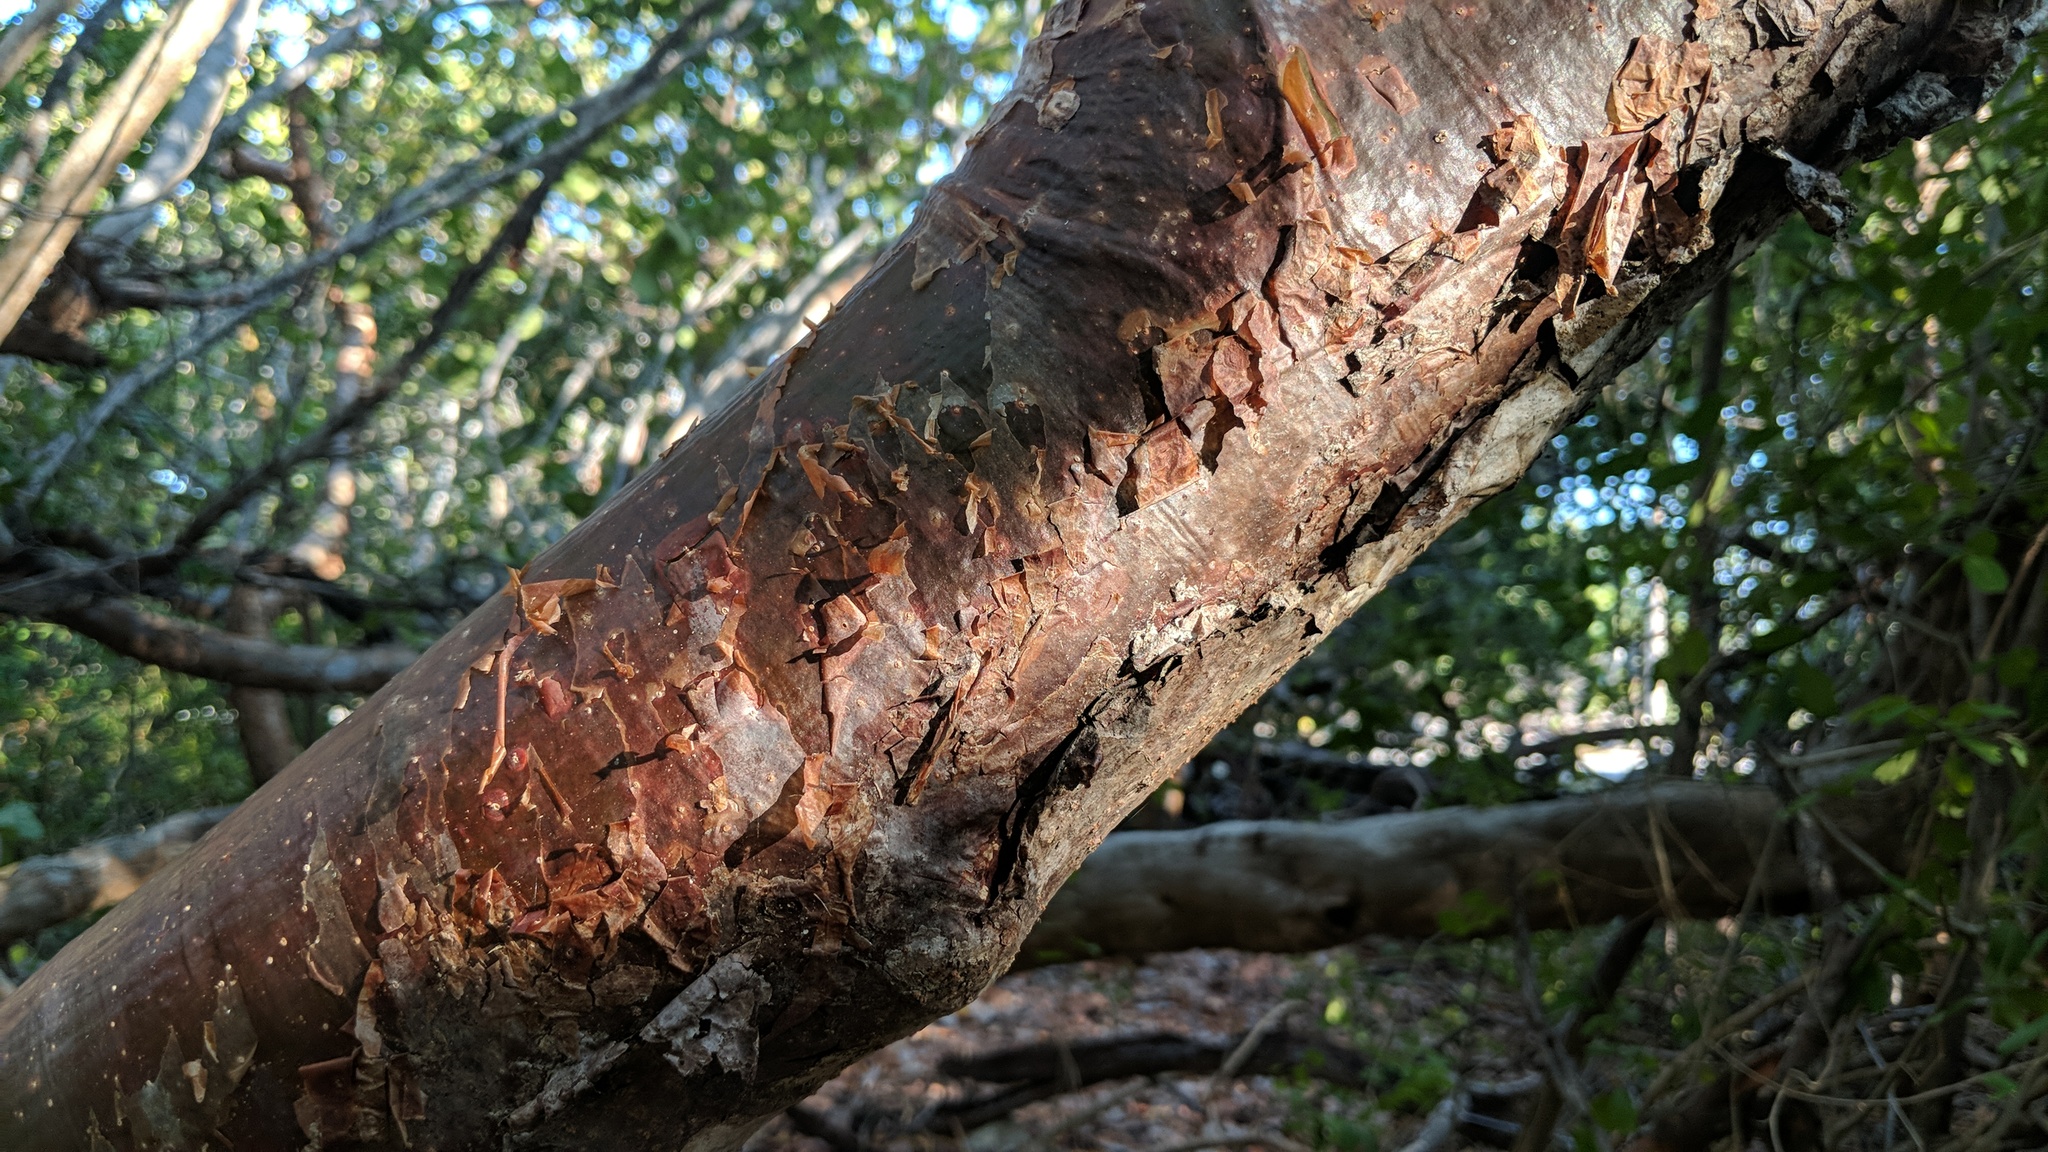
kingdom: Plantae
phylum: Tracheophyta
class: Magnoliopsida
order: Sapindales
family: Burseraceae
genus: Bursera
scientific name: Bursera simaruba
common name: Turpentine tree
